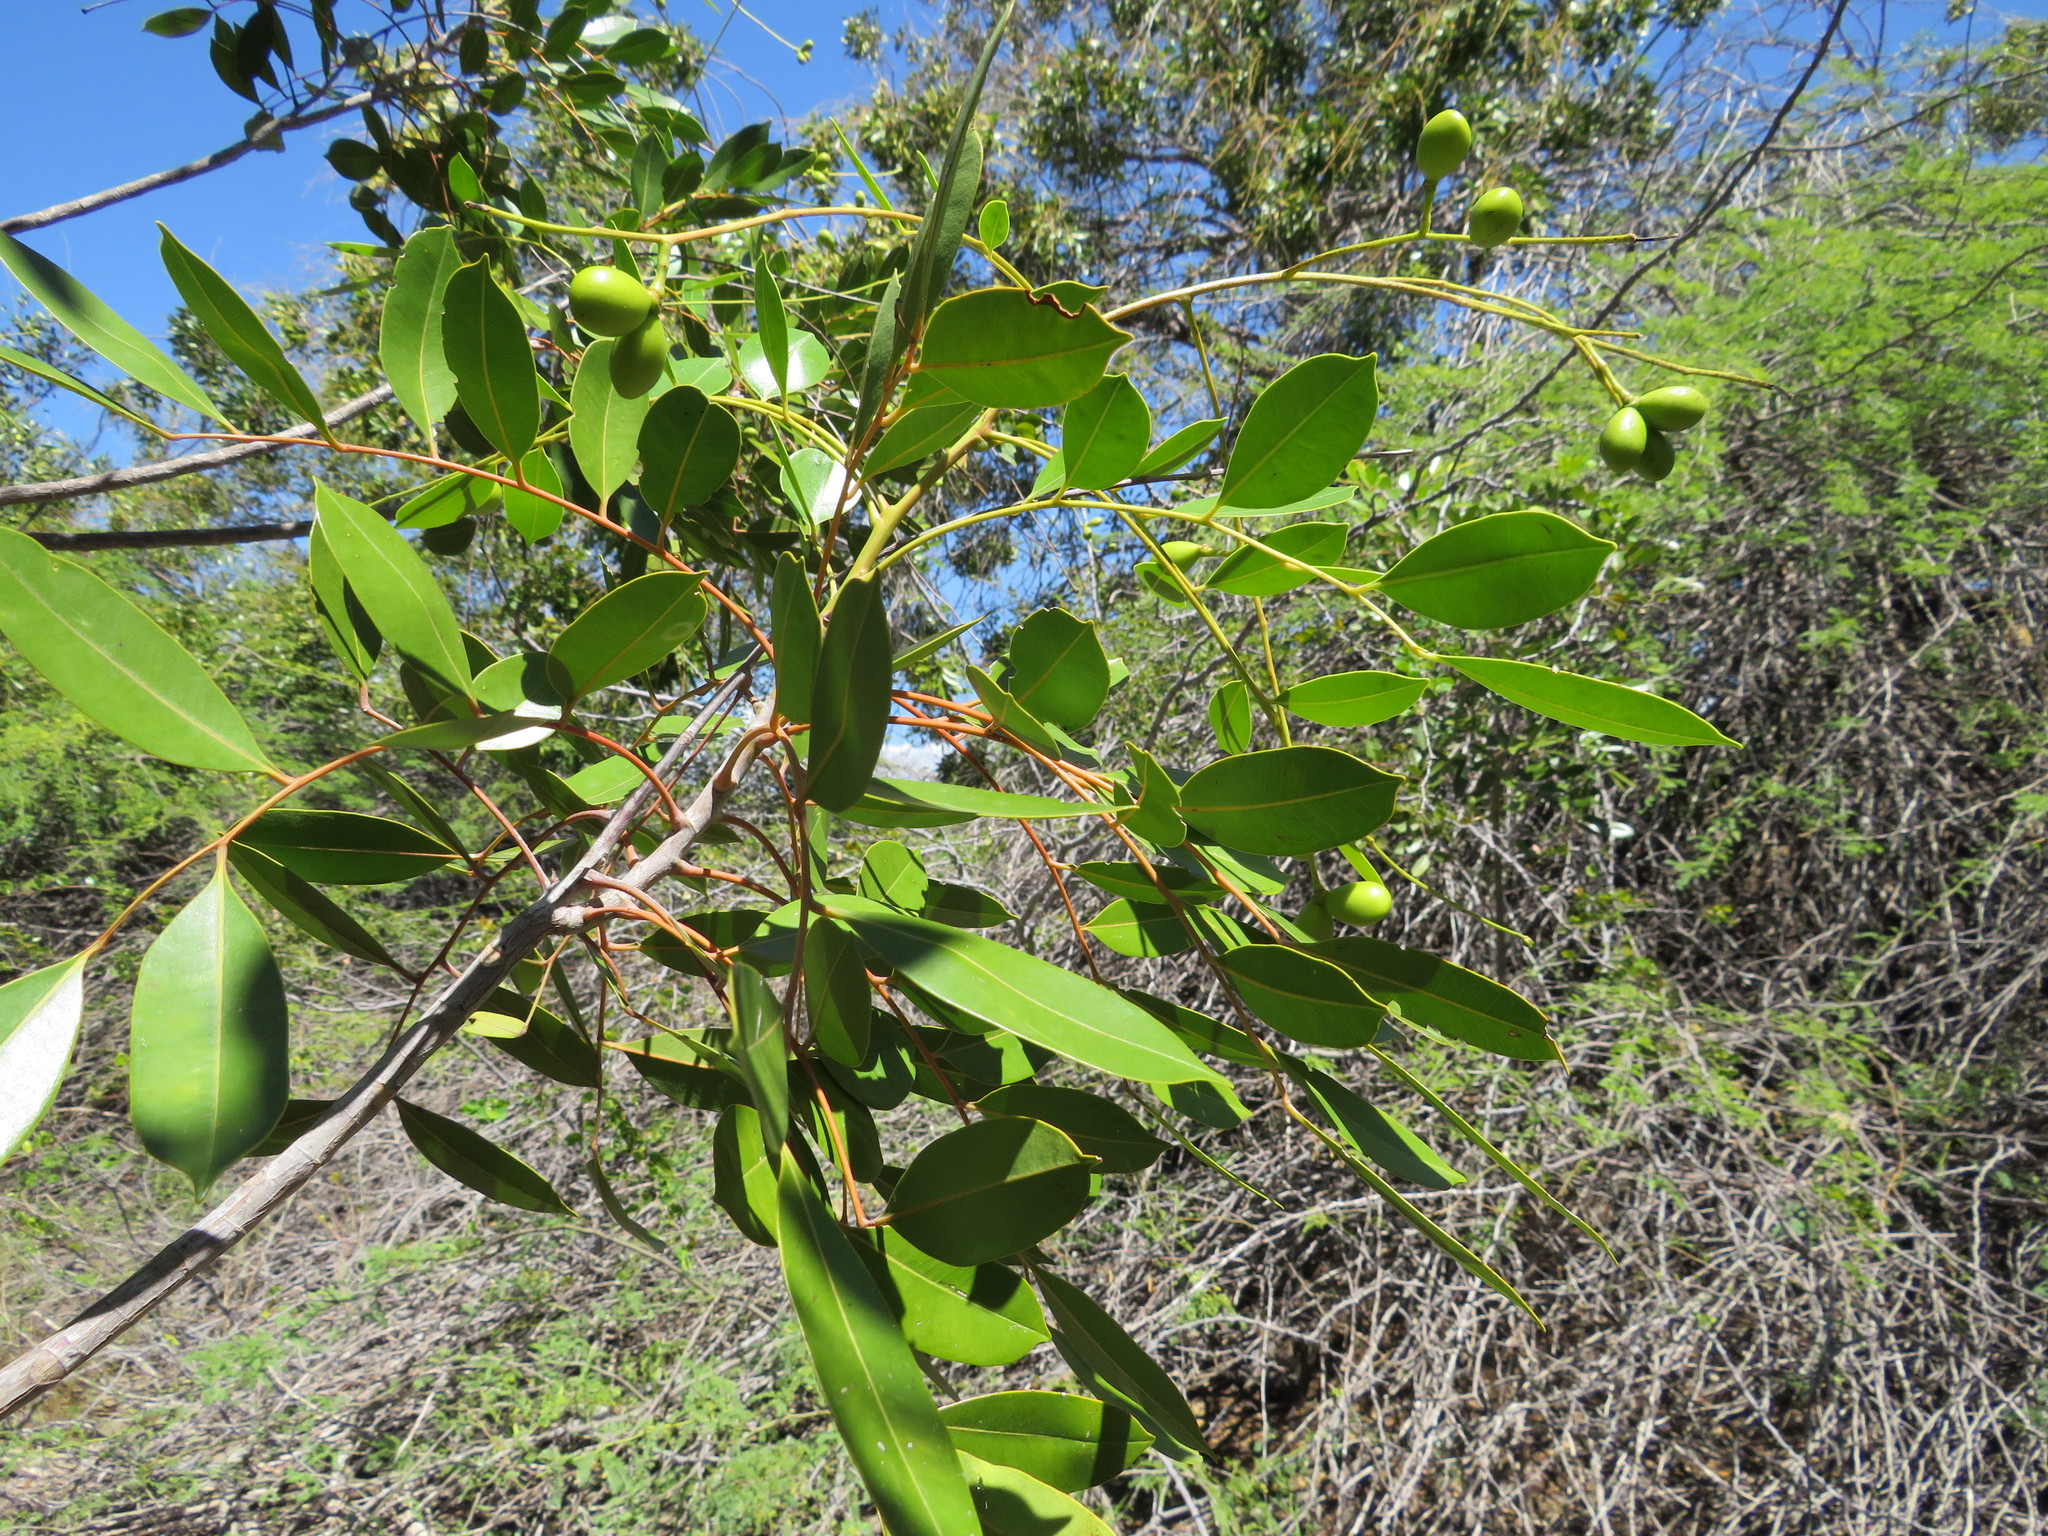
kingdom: Plantae
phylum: Tracheophyta
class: Magnoliopsida
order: Sapindales
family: Simaroubaceae
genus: Simarouba
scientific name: Simarouba berteroana
